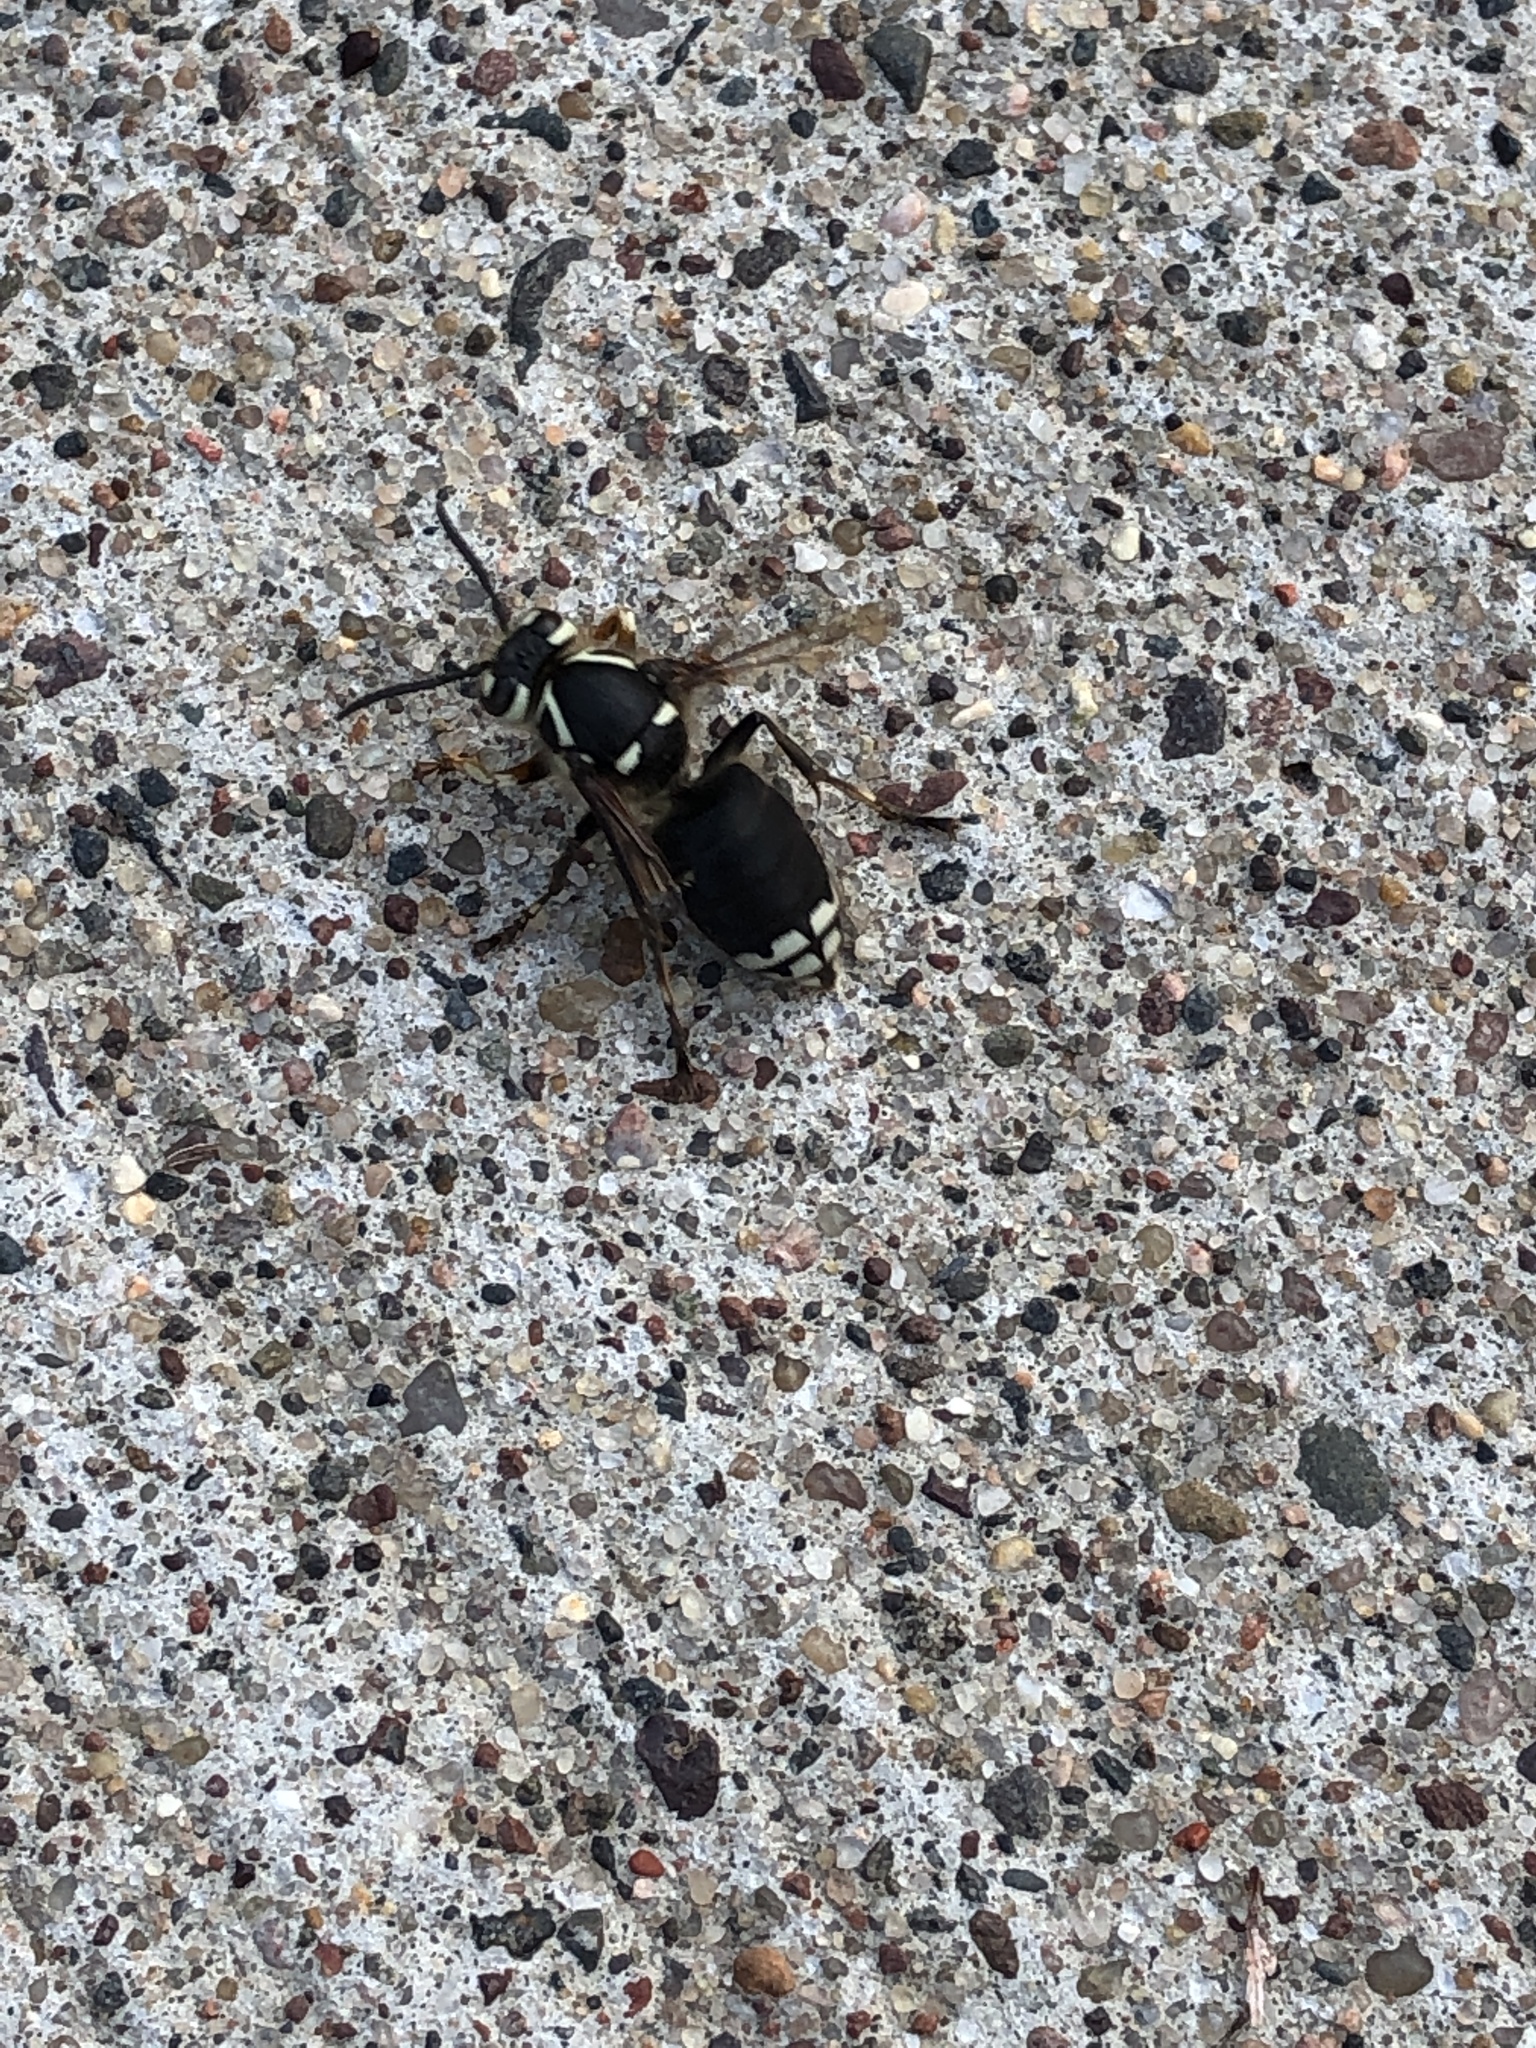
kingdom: Animalia
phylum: Arthropoda
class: Insecta
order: Hymenoptera
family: Vespidae
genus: Dolichovespula
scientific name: Dolichovespula maculata
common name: Bald-faced hornet
